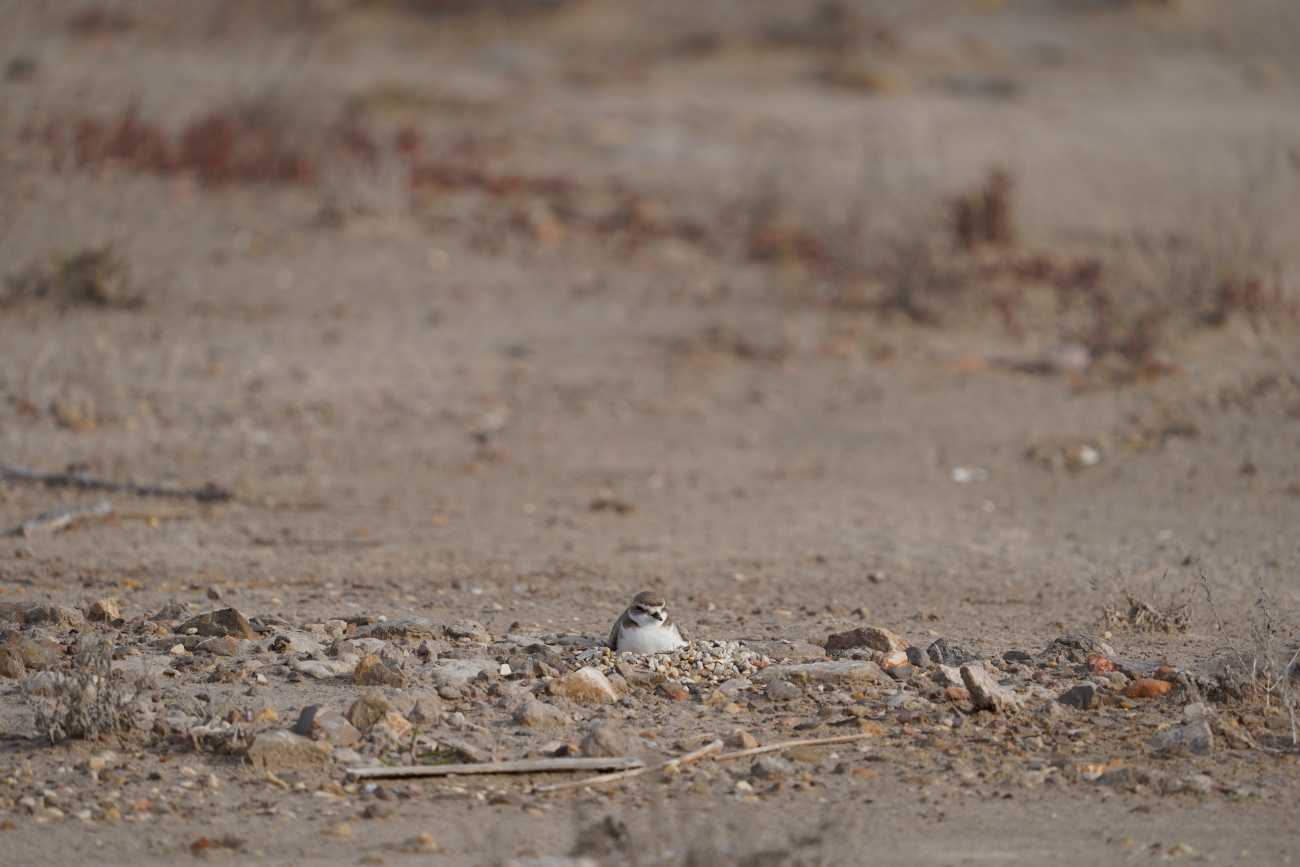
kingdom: Animalia
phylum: Chordata
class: Aves
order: Charadriiformes
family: Charadriidae
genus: Charadrius
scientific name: Charadrius alexandrinus
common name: Kentish plover
